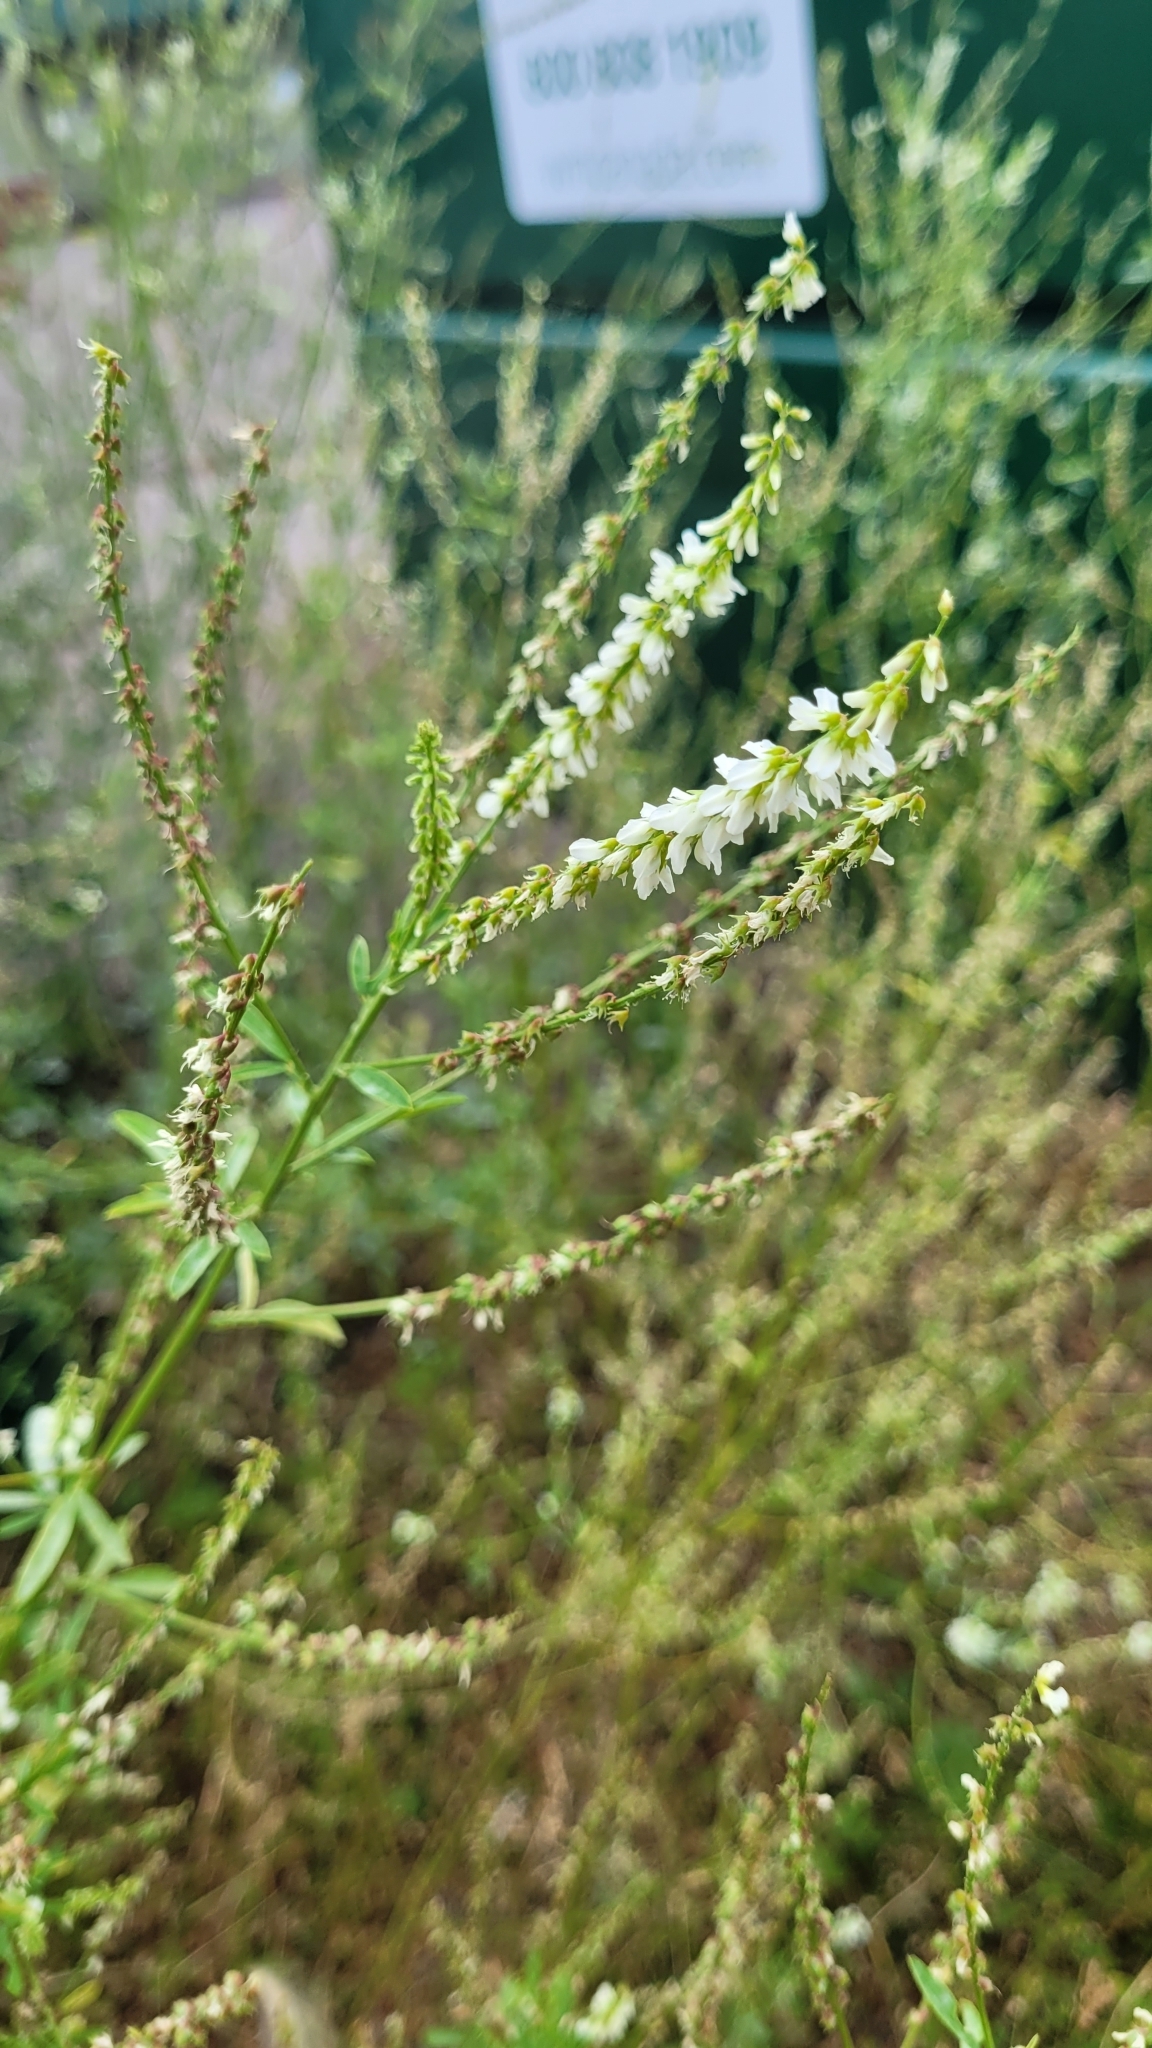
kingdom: Plantae
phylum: Tracheophyta
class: Magnoliopsida
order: Fabales
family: Fabaceae
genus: Melilotus
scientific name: Melilotus albus
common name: White melilot
